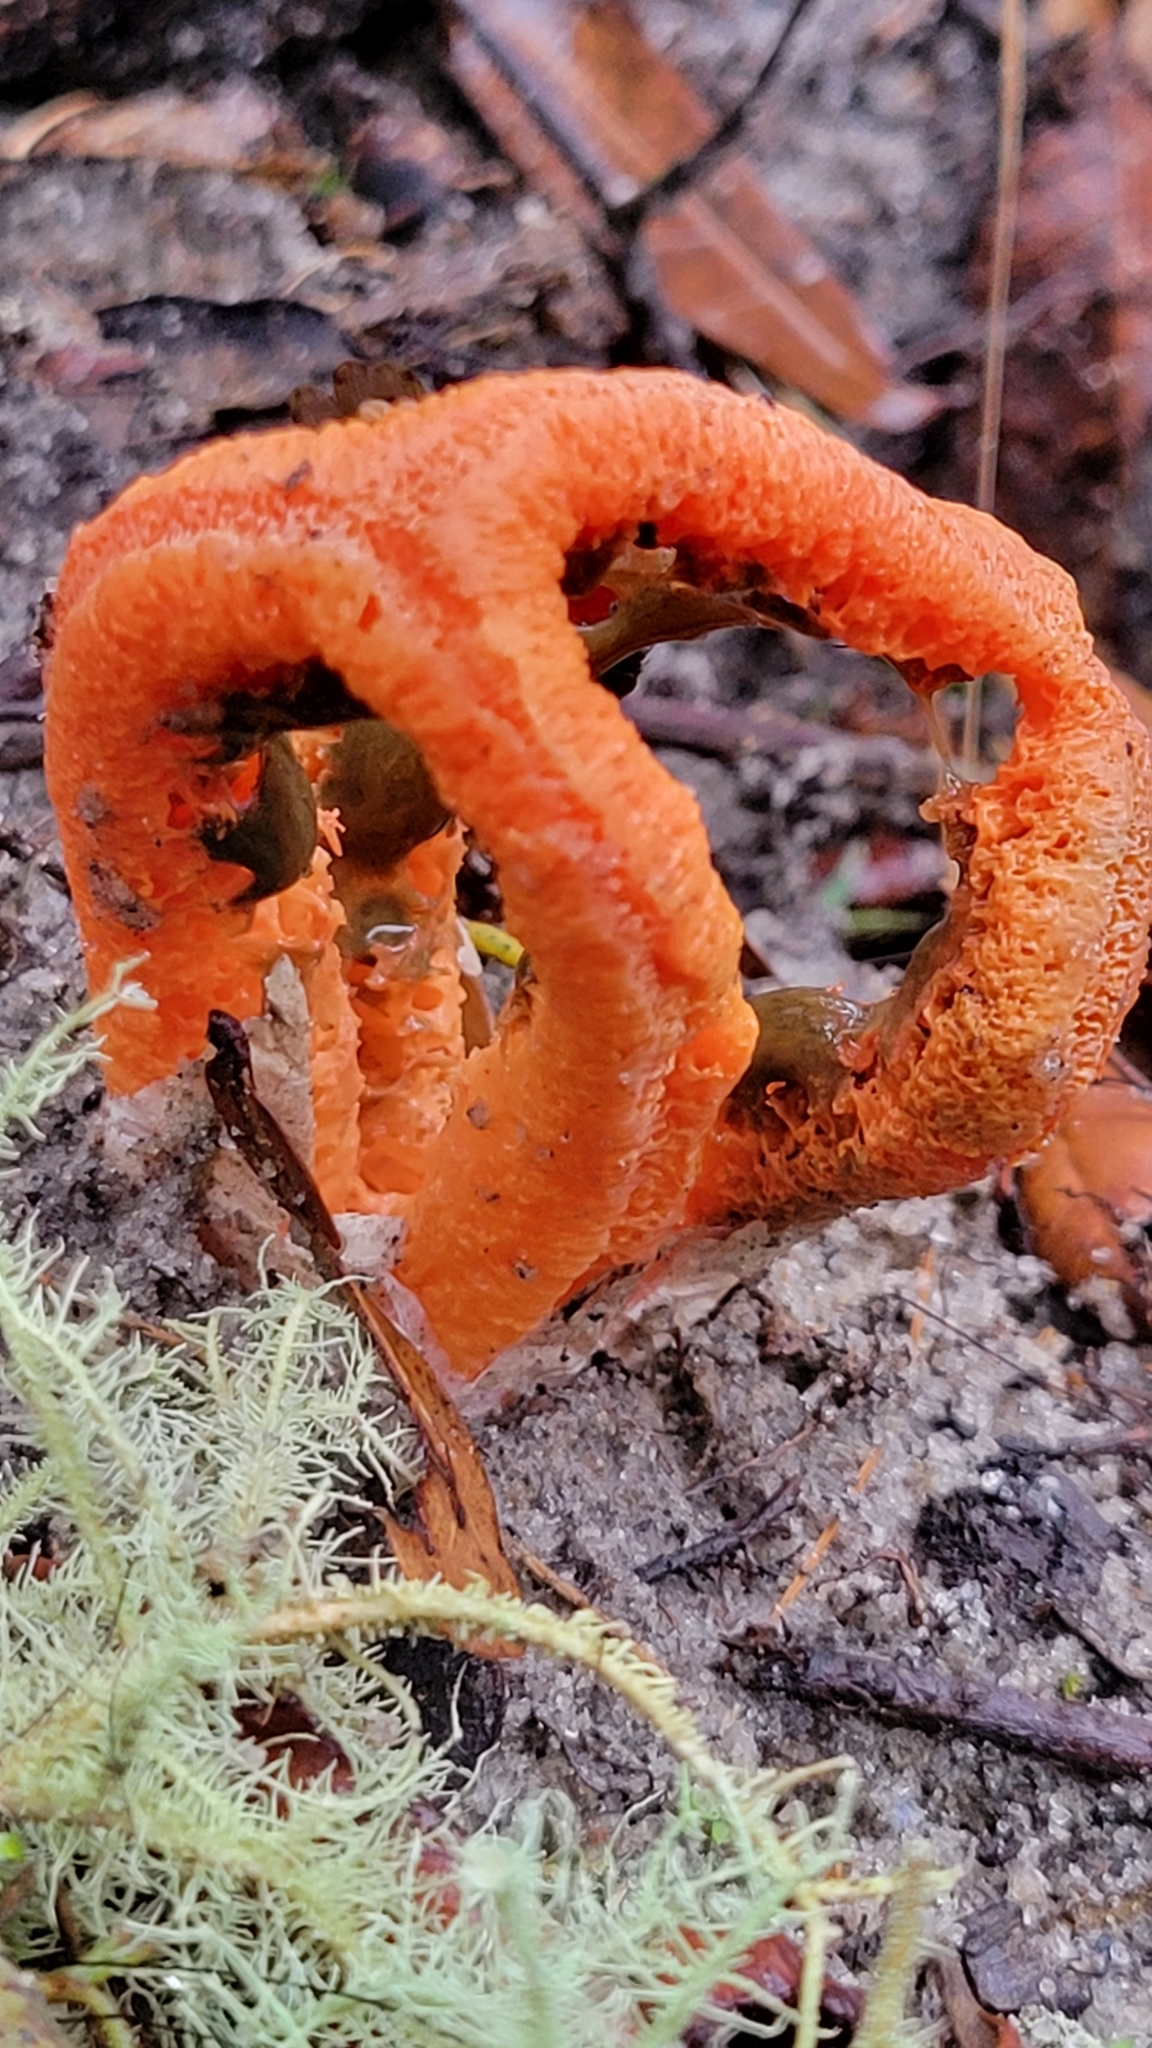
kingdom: Fungi
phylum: Basidiomycota
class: Agaricomycetes
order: Phallales
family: Phallaceae
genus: Clathrus
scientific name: Clathrus columnatus
